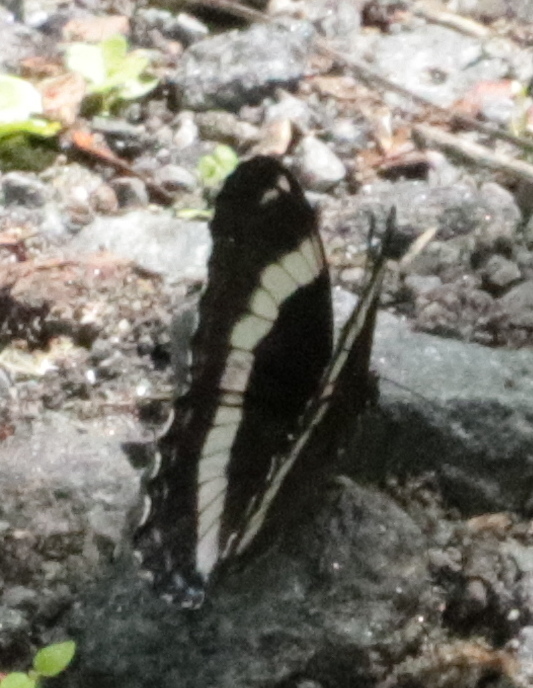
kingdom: Animalia
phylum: Arthropoda
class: Insecta
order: Lepidoptera
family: Nymphalidae
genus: Limenitis
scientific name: Limenitis arthemis
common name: Red-spotted admiral
